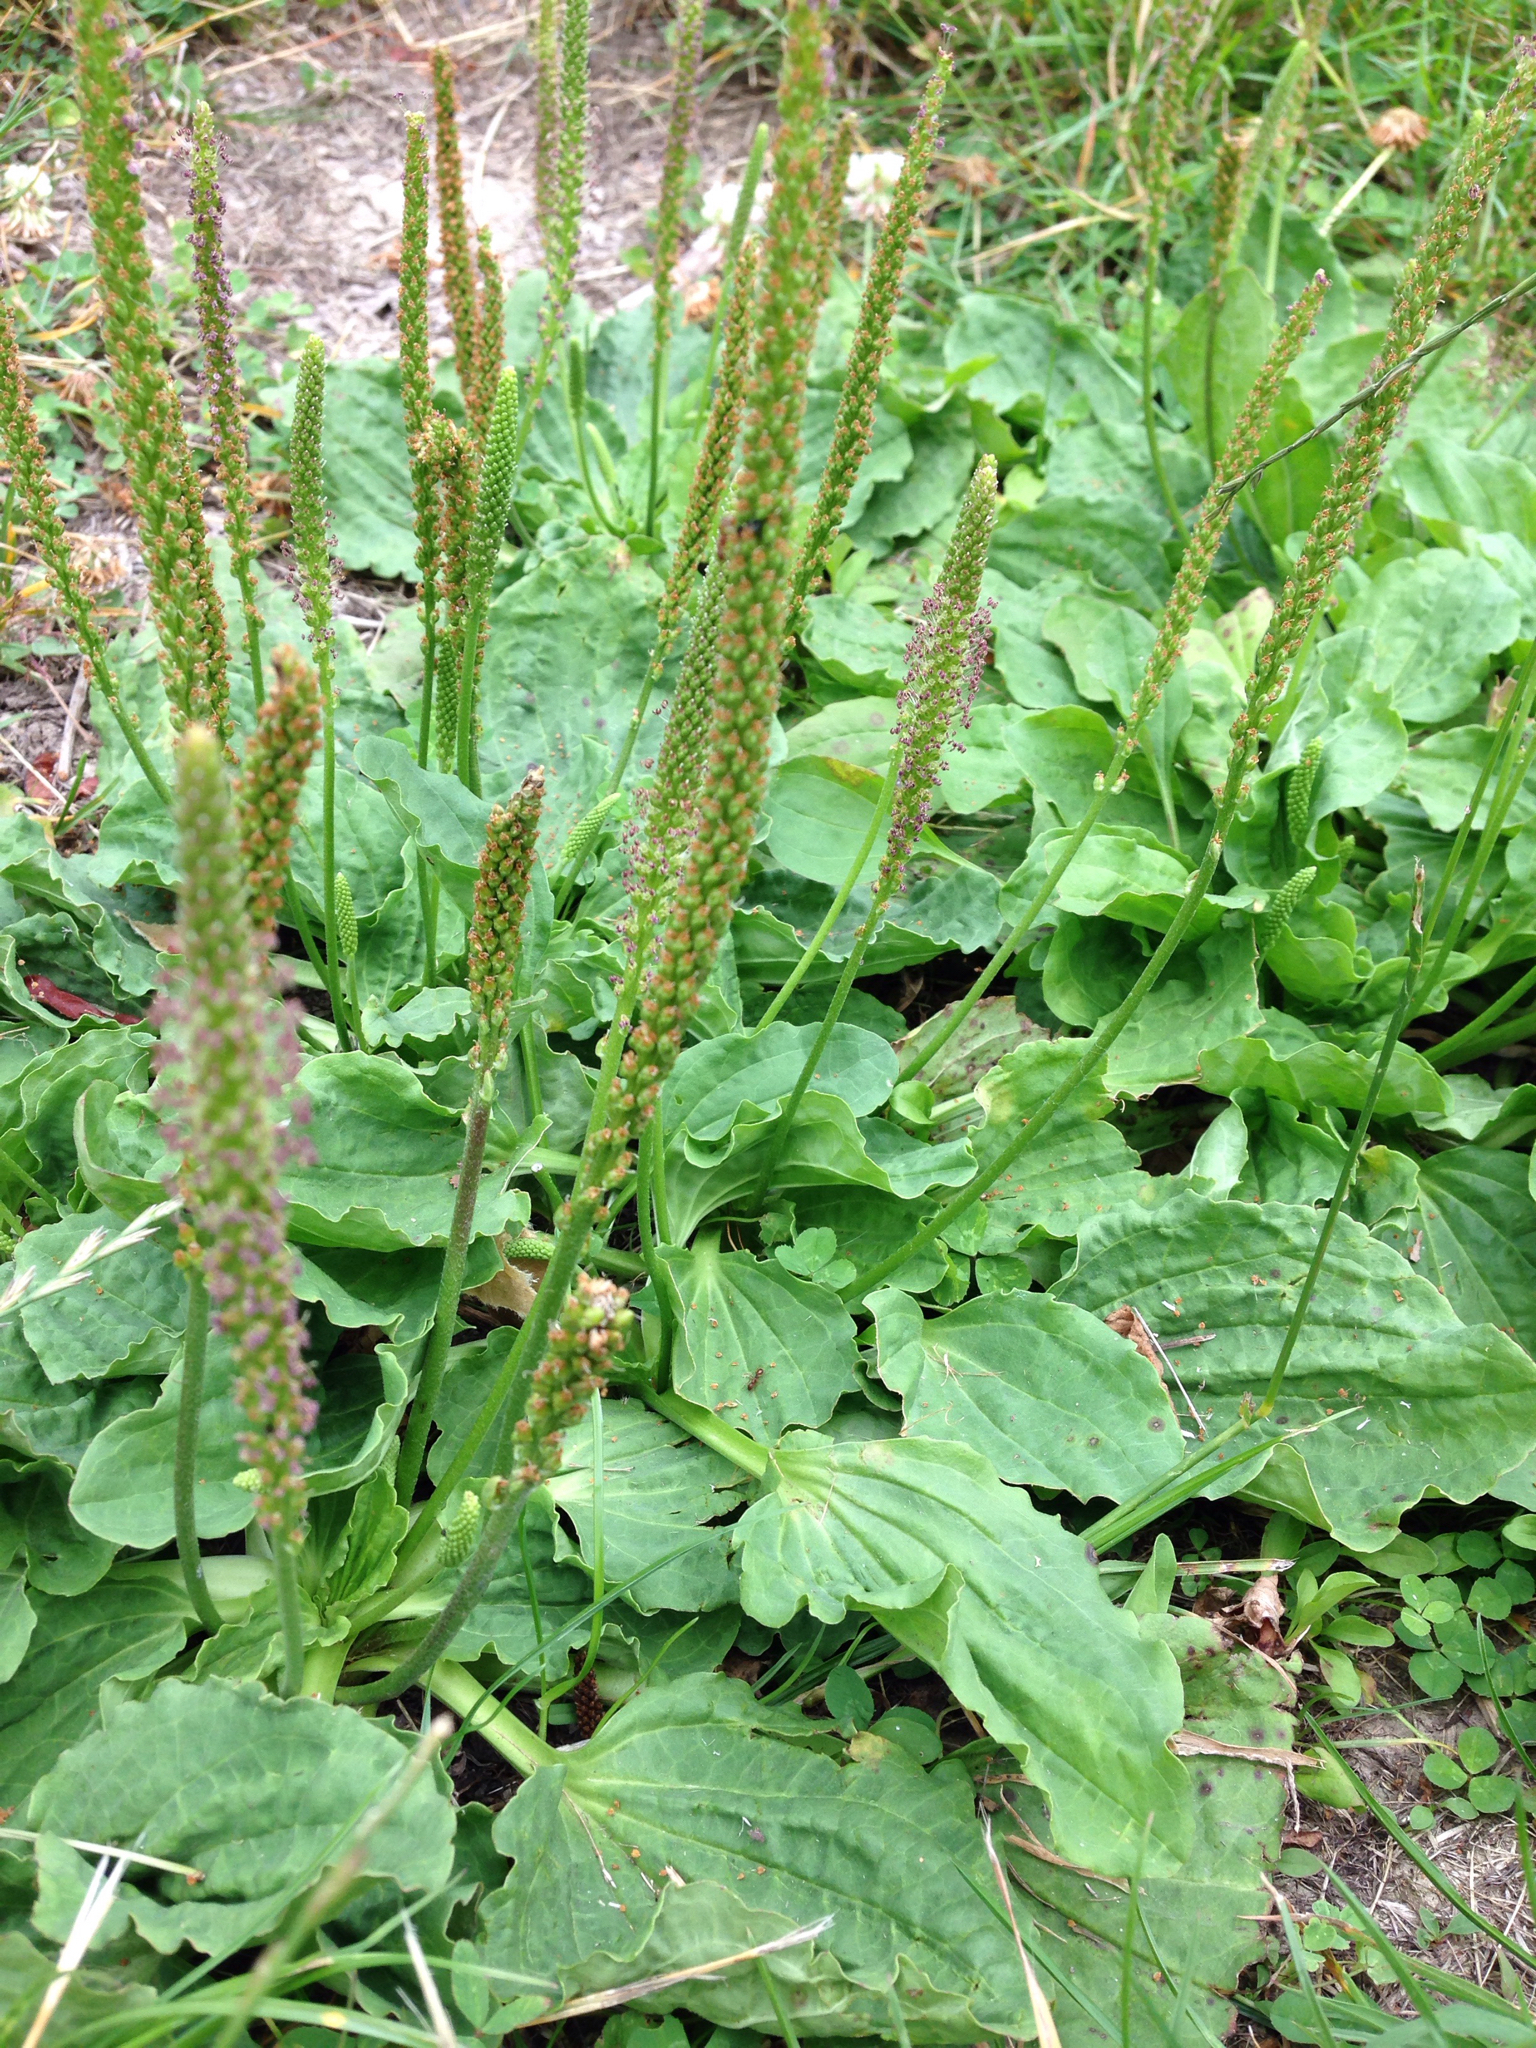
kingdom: Plantae
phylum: Tracheophyta
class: Magnoliopsida
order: Lamiales
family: Plantaginaceae
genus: Plantago
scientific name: Plantago major
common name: Common plantain
